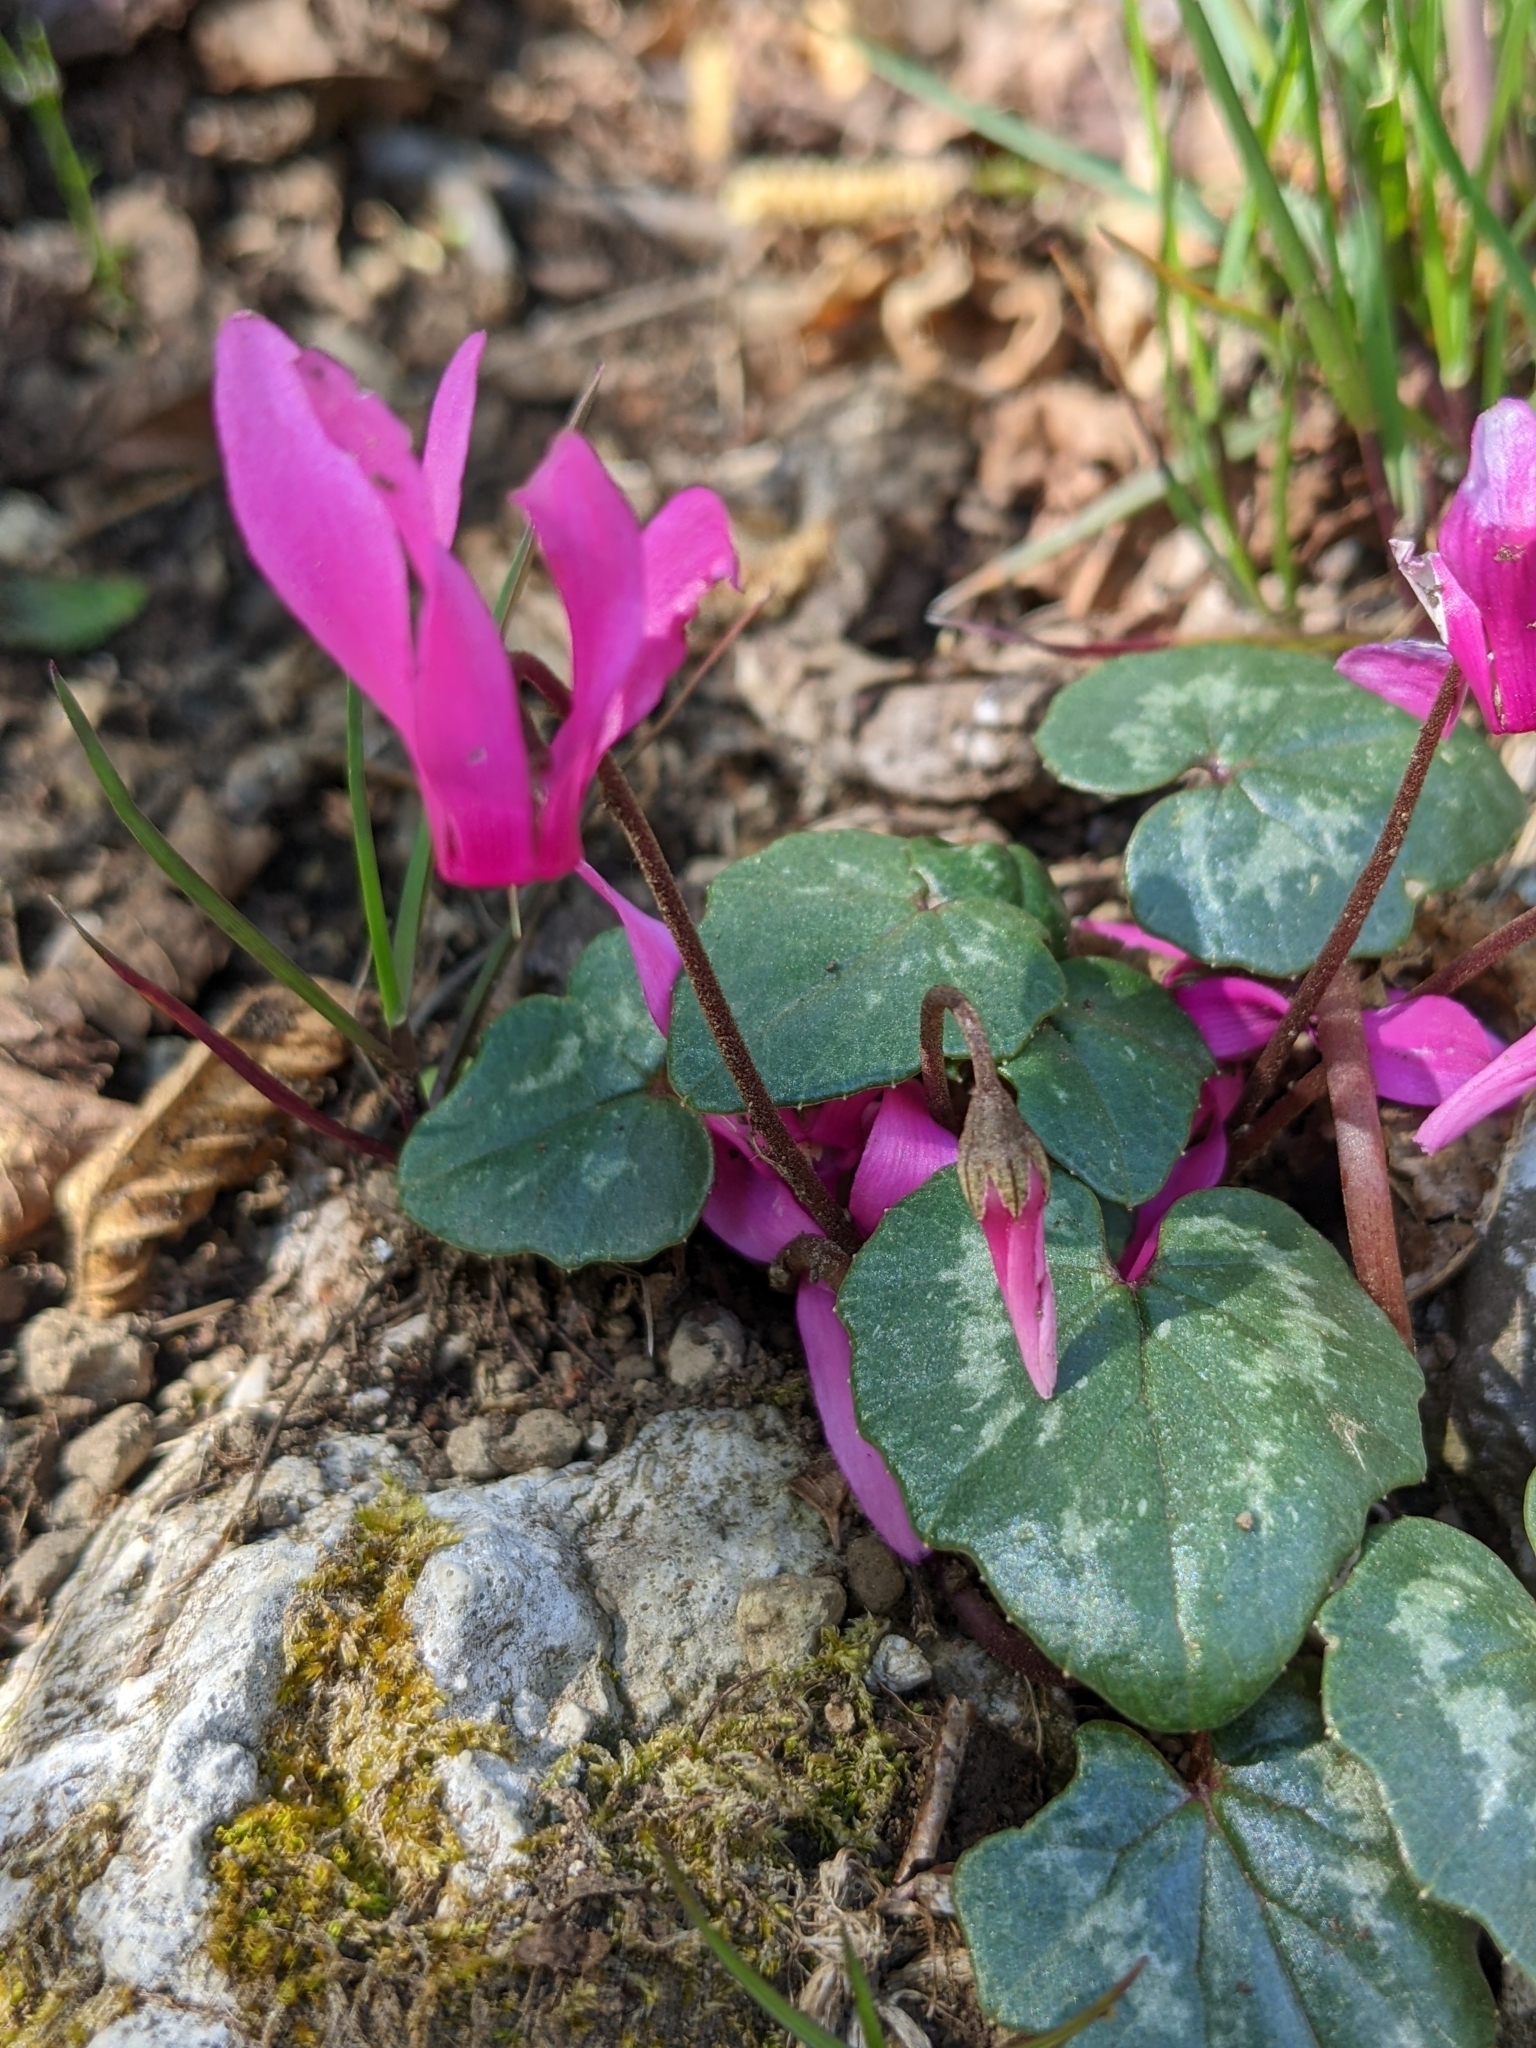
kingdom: Plantae
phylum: Tracheophyta
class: Magnoliopsida
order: Ericales
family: Primulaceae
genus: Cyclamen
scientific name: Cyclamen repandum
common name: Spring sowbread
